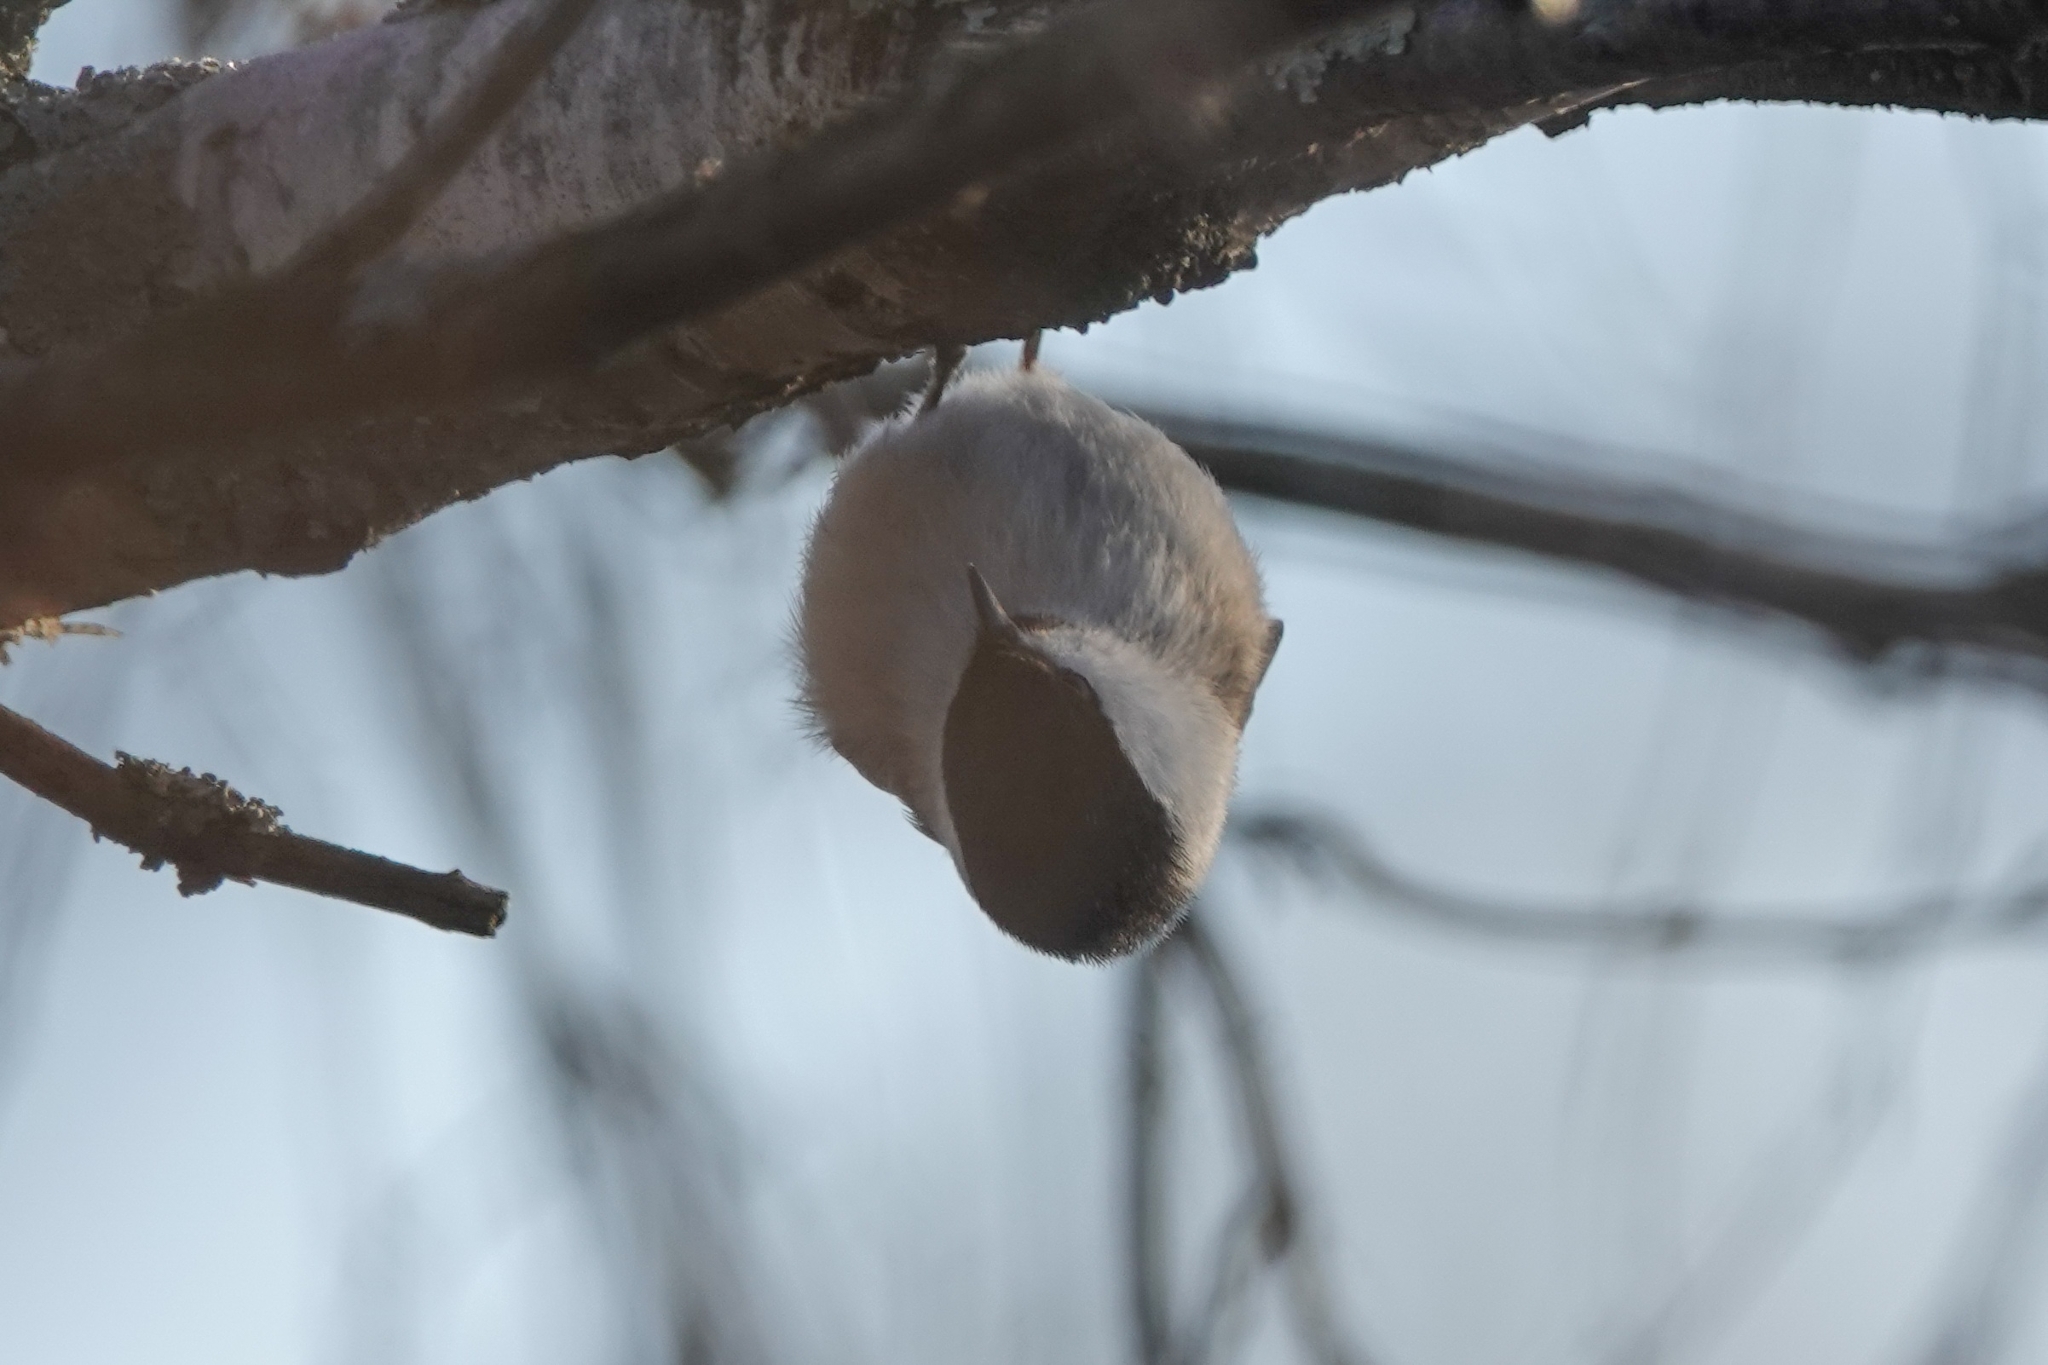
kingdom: Animalia
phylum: Chordata
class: Aves
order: Passeriformes
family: Paridae
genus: Poecile
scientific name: Poecile montanus
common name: Willow tit
